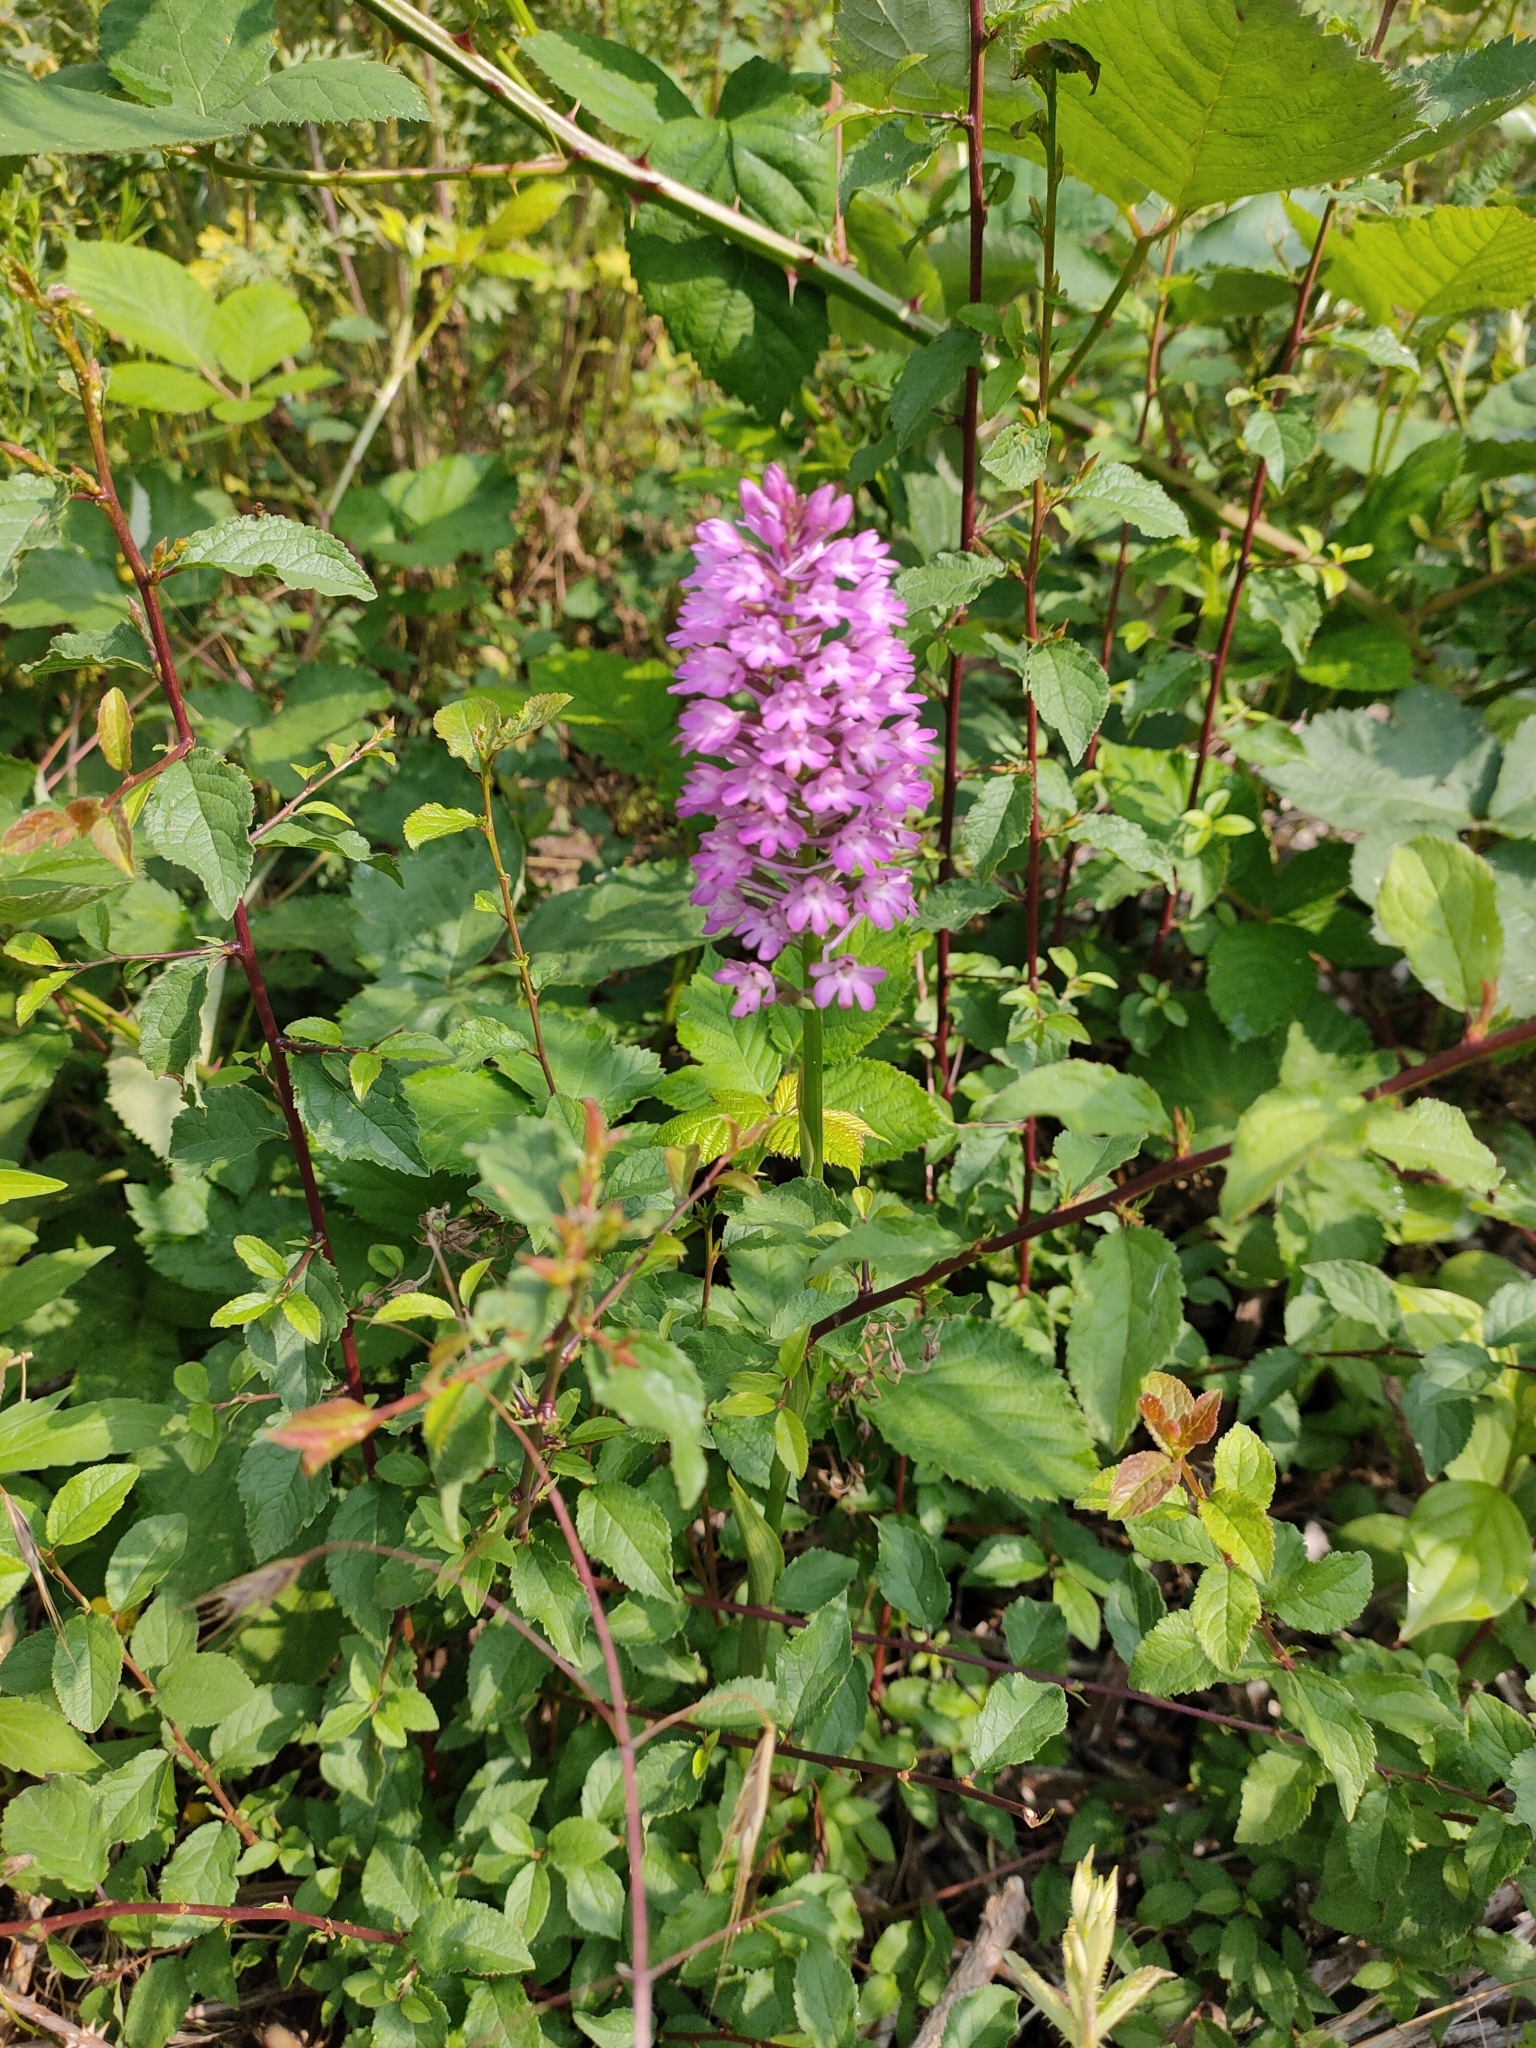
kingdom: Plantae
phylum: Tracheophyta
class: Liliopsida
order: Asparagales
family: Orchidaceae
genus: Anacamptis
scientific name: Anacamptis pyramidalis
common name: Pyramidal orchid
